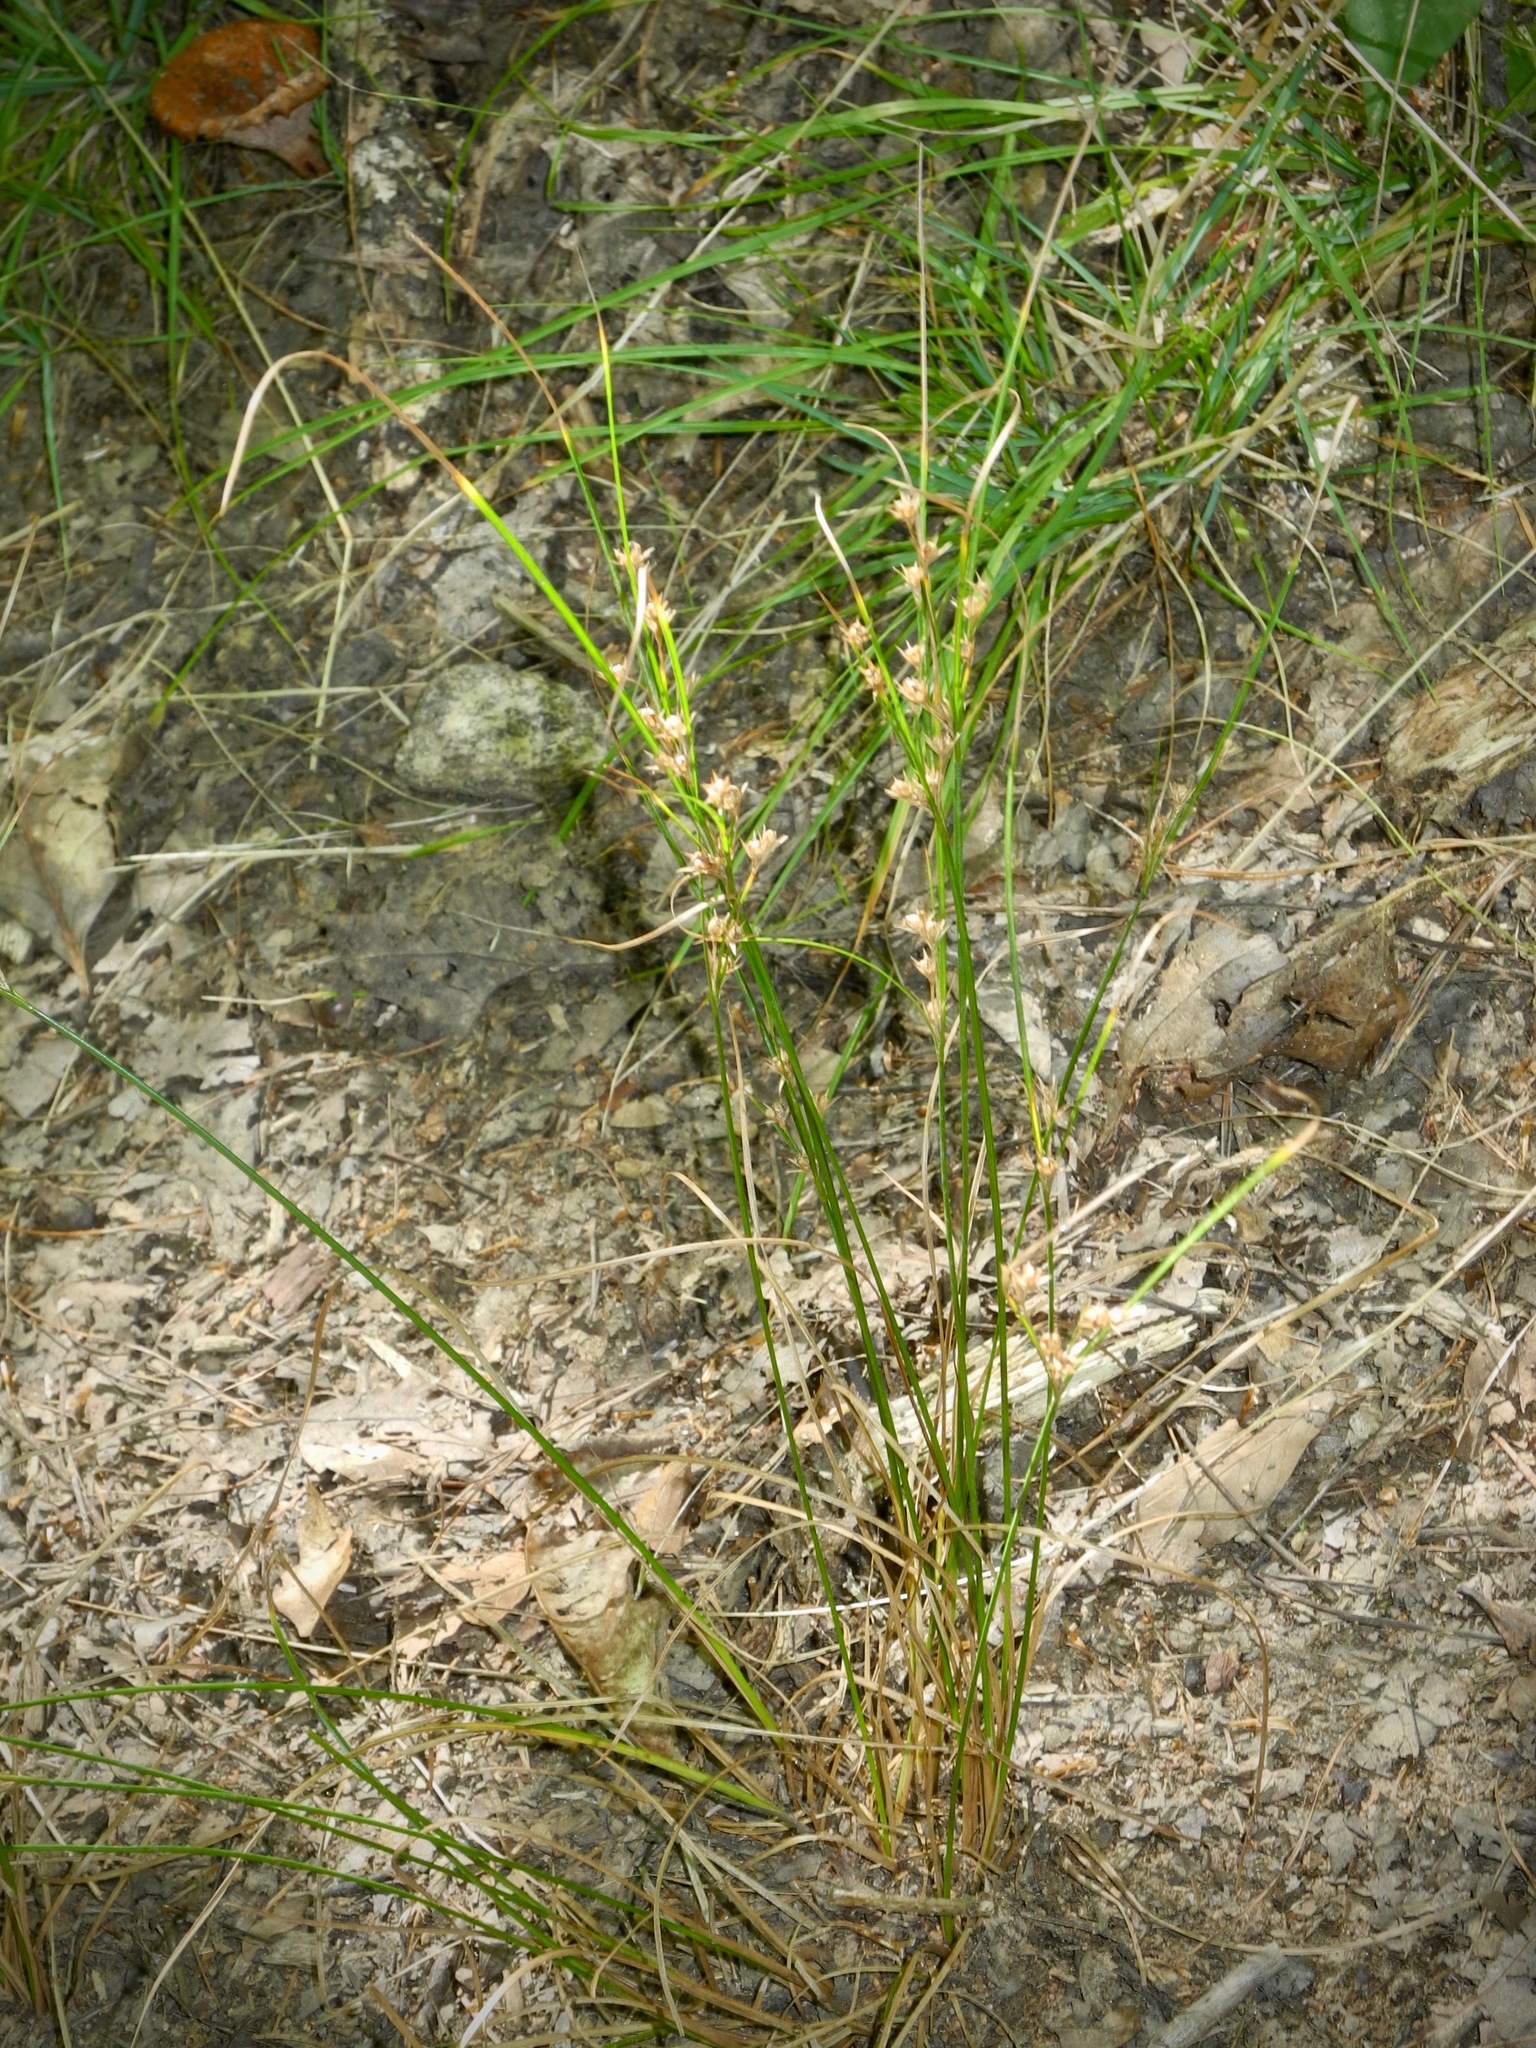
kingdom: Plantae
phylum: Tracheophyta
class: Liliopsida
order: Poales
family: Juncaceae
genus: Juncus
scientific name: Juncus tenuis
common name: Slender rush
